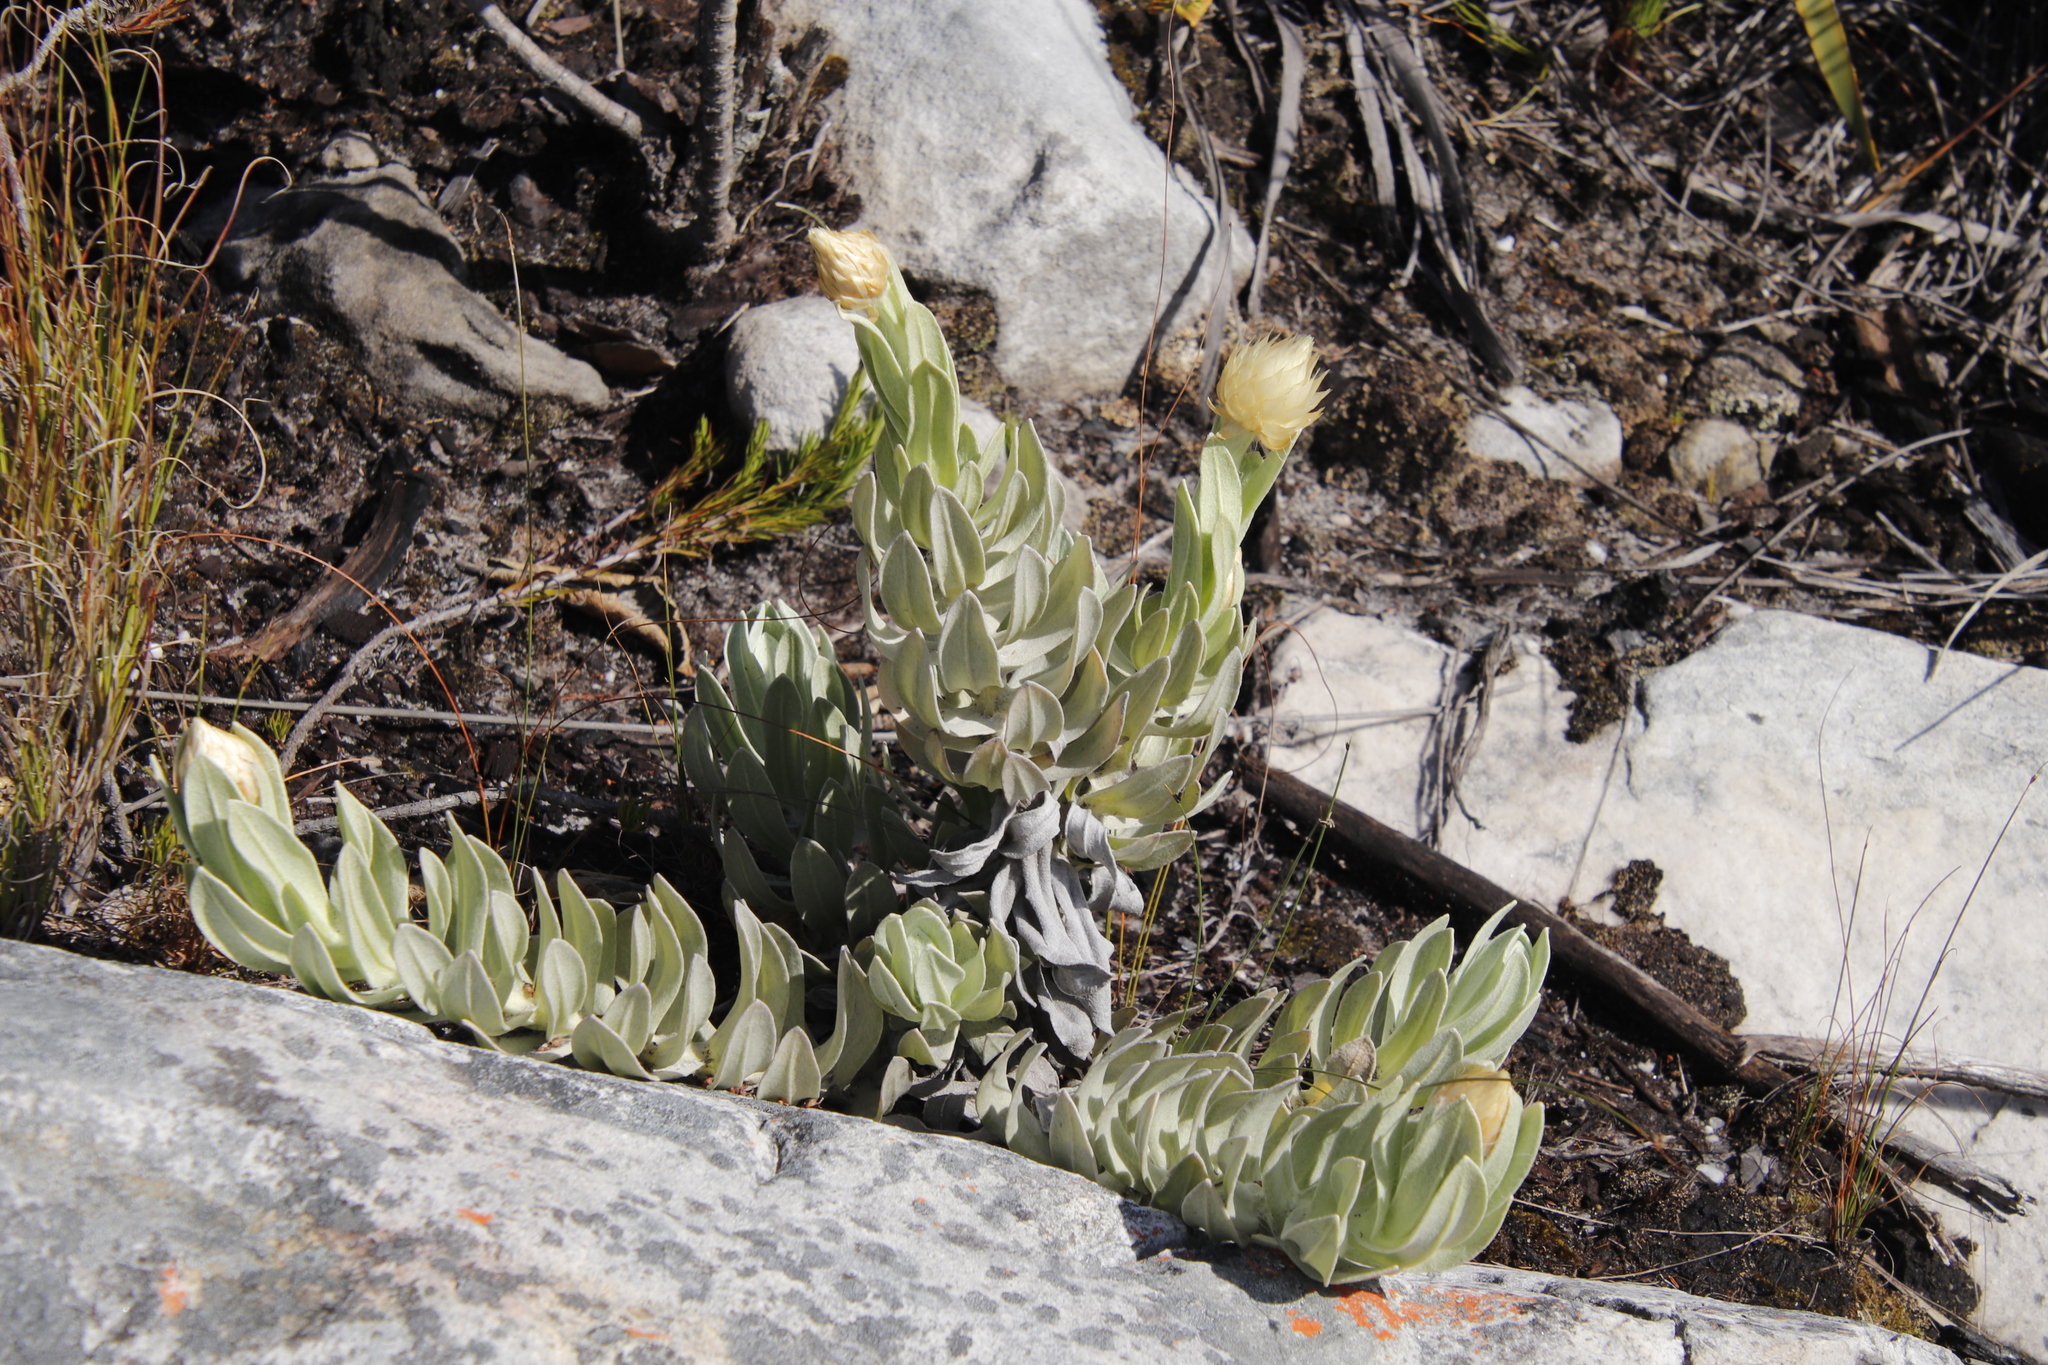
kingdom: Plantae
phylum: Tracheophyta
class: Magnoliopsida
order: Asterales
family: Asteraceae
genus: Syncarpha
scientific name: Syncarpha speciosissima
